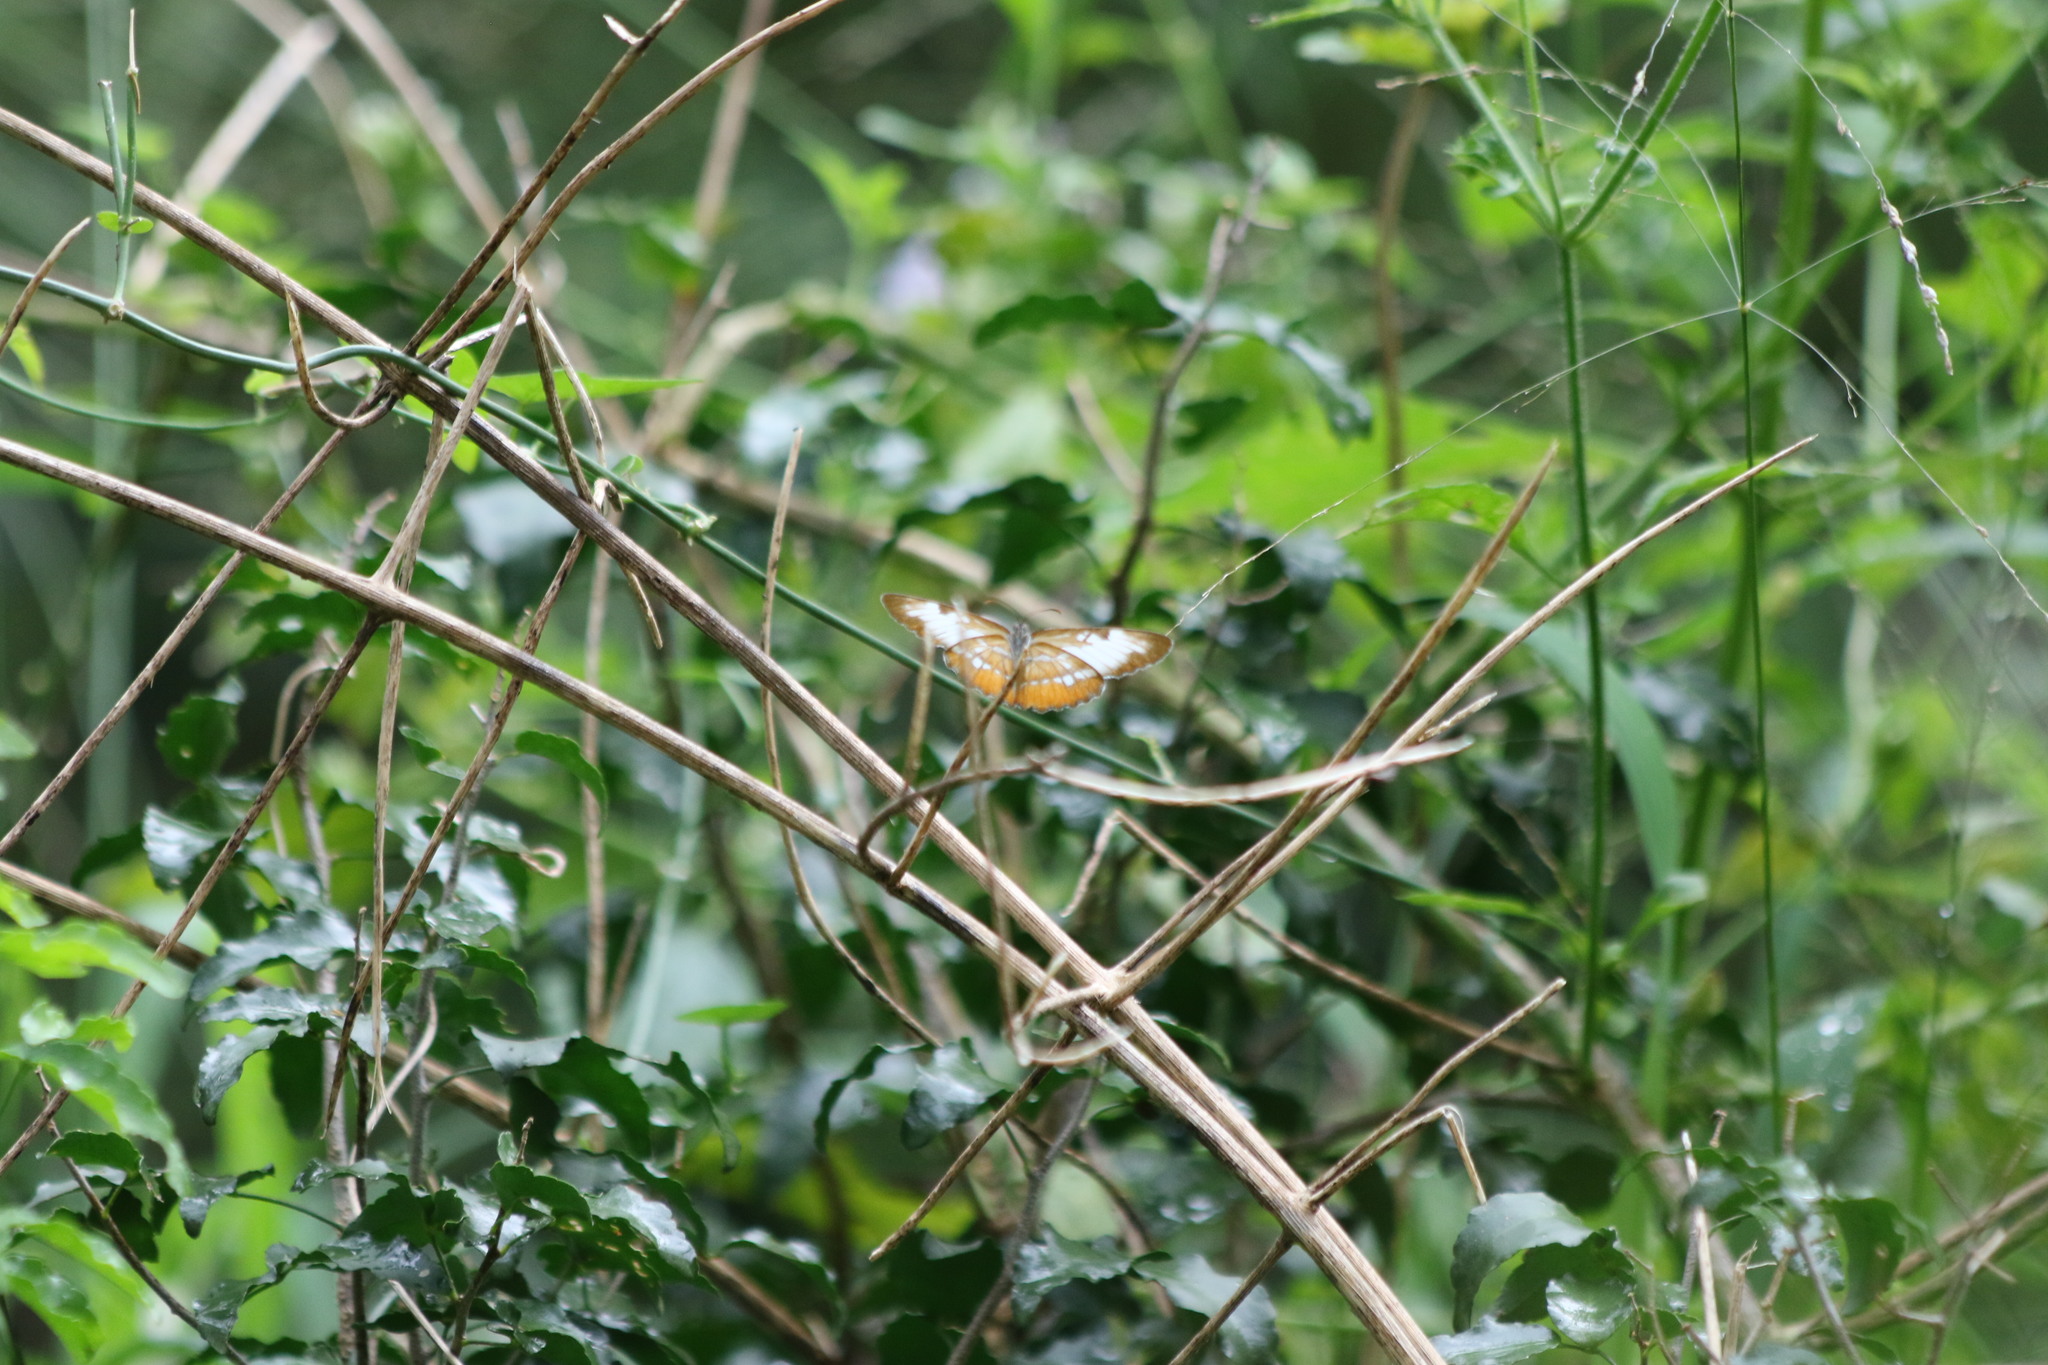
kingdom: Animalia
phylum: Arthropoda
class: Insecta
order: Lepidoptera
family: Nymphalidae
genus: Mestra
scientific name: Mestra amymone
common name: Common mestra
